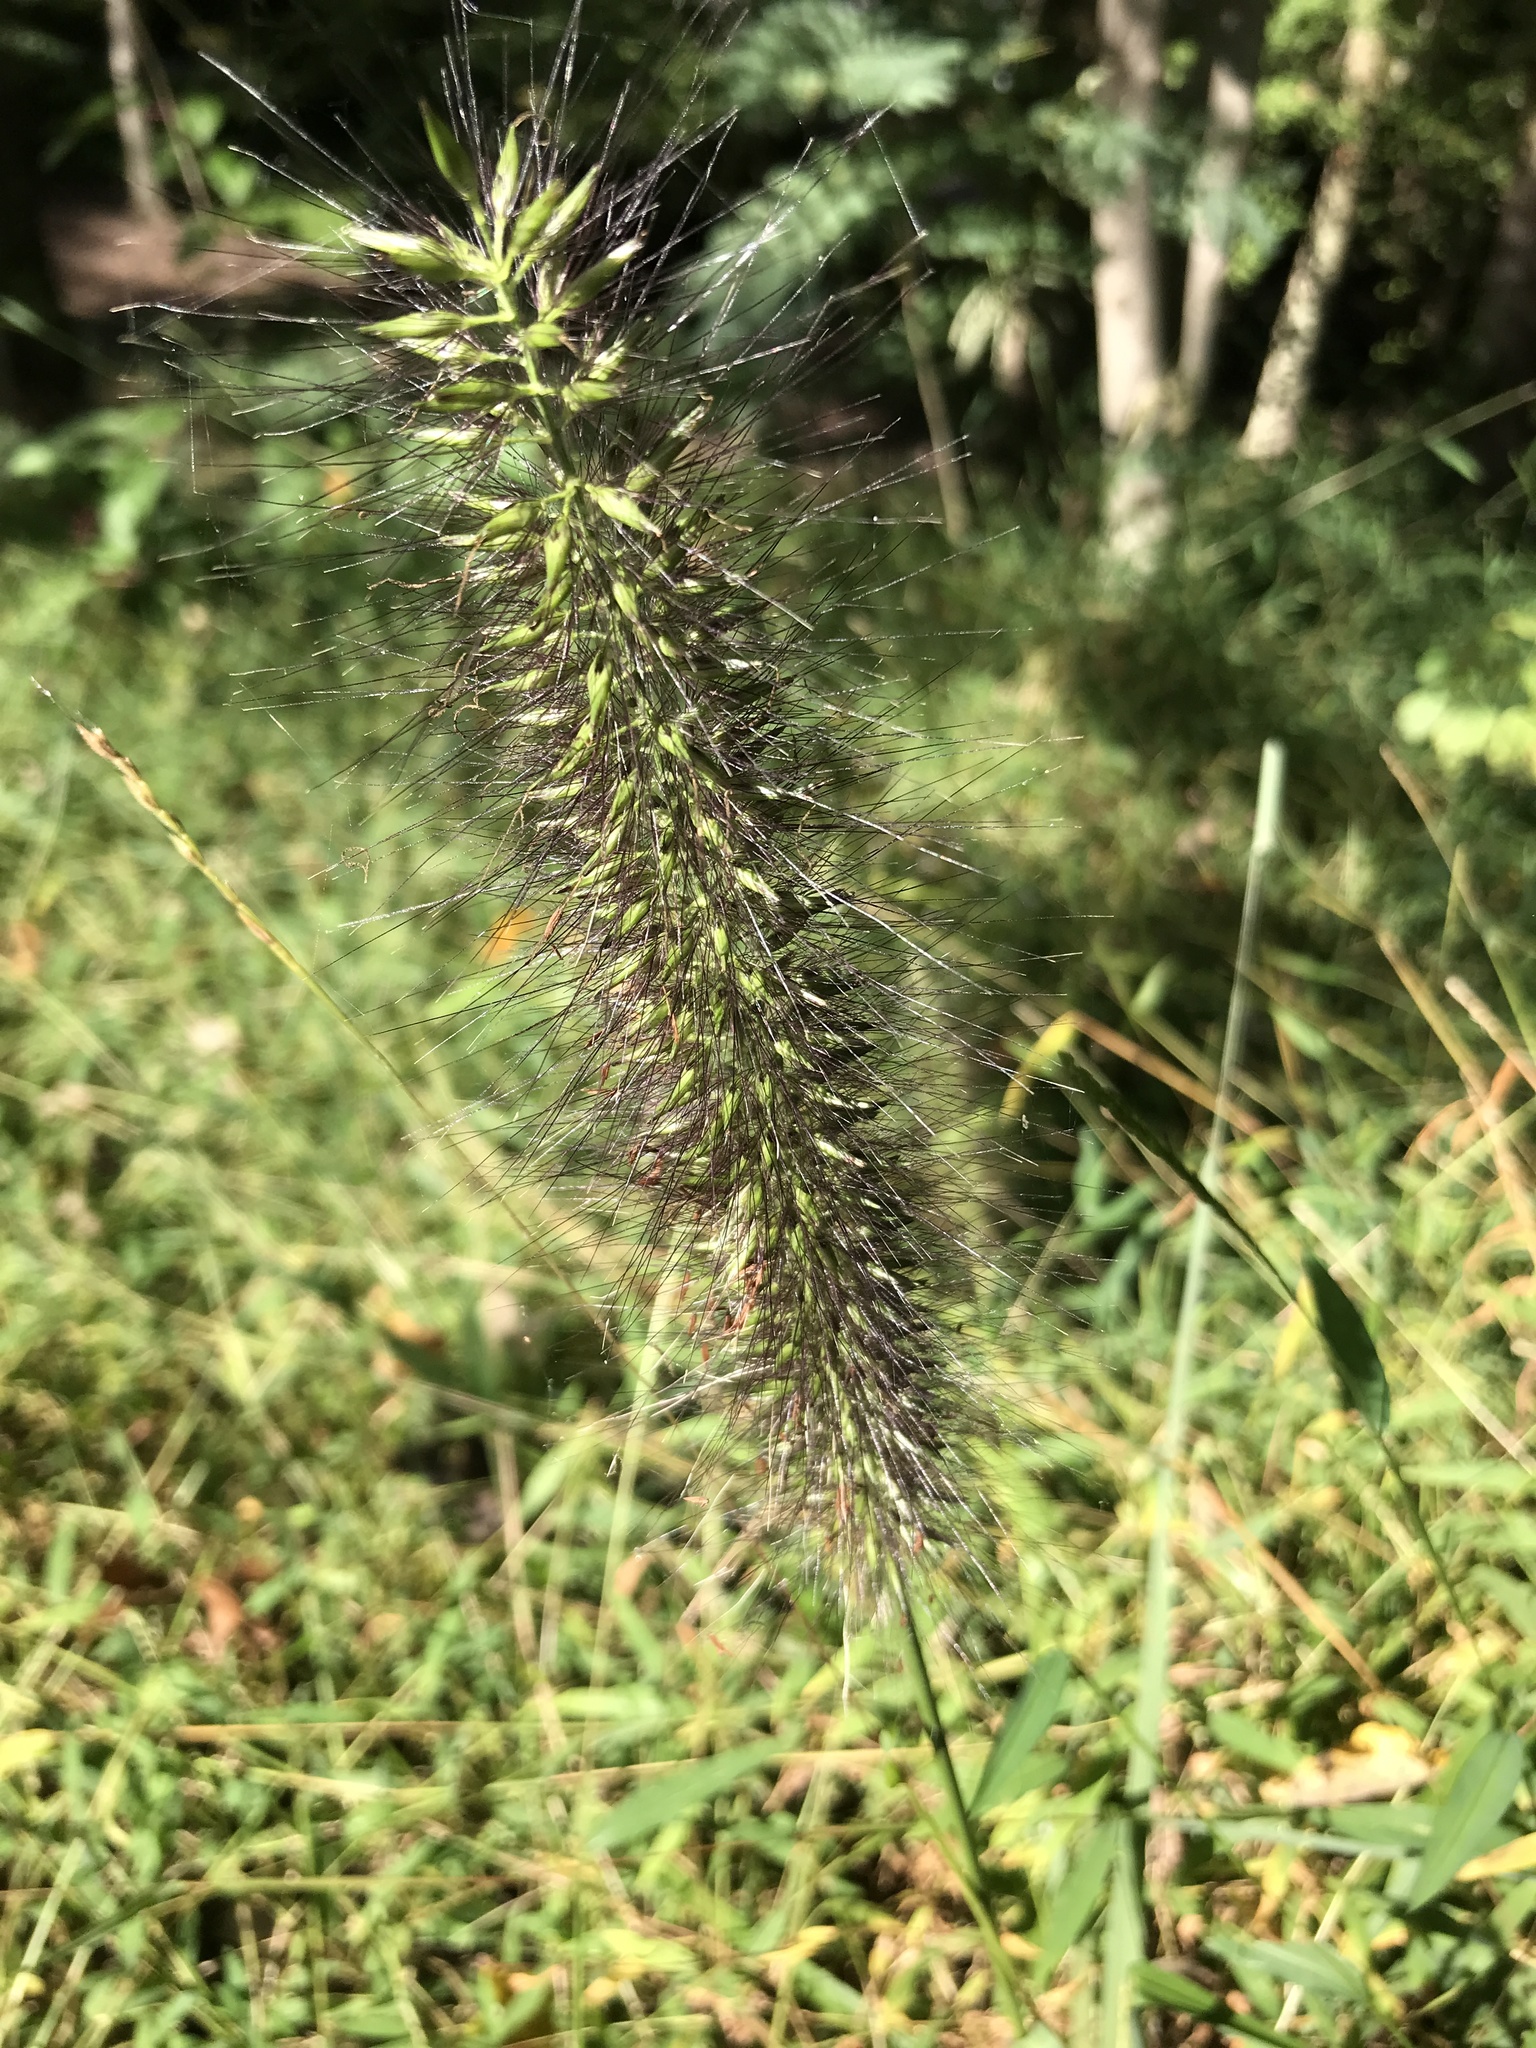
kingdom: Plantae
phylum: Tracheophyta
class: Liliopsida
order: Poales
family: Poaceae
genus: Cenchrus
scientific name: Cenchrus alopecuroides
